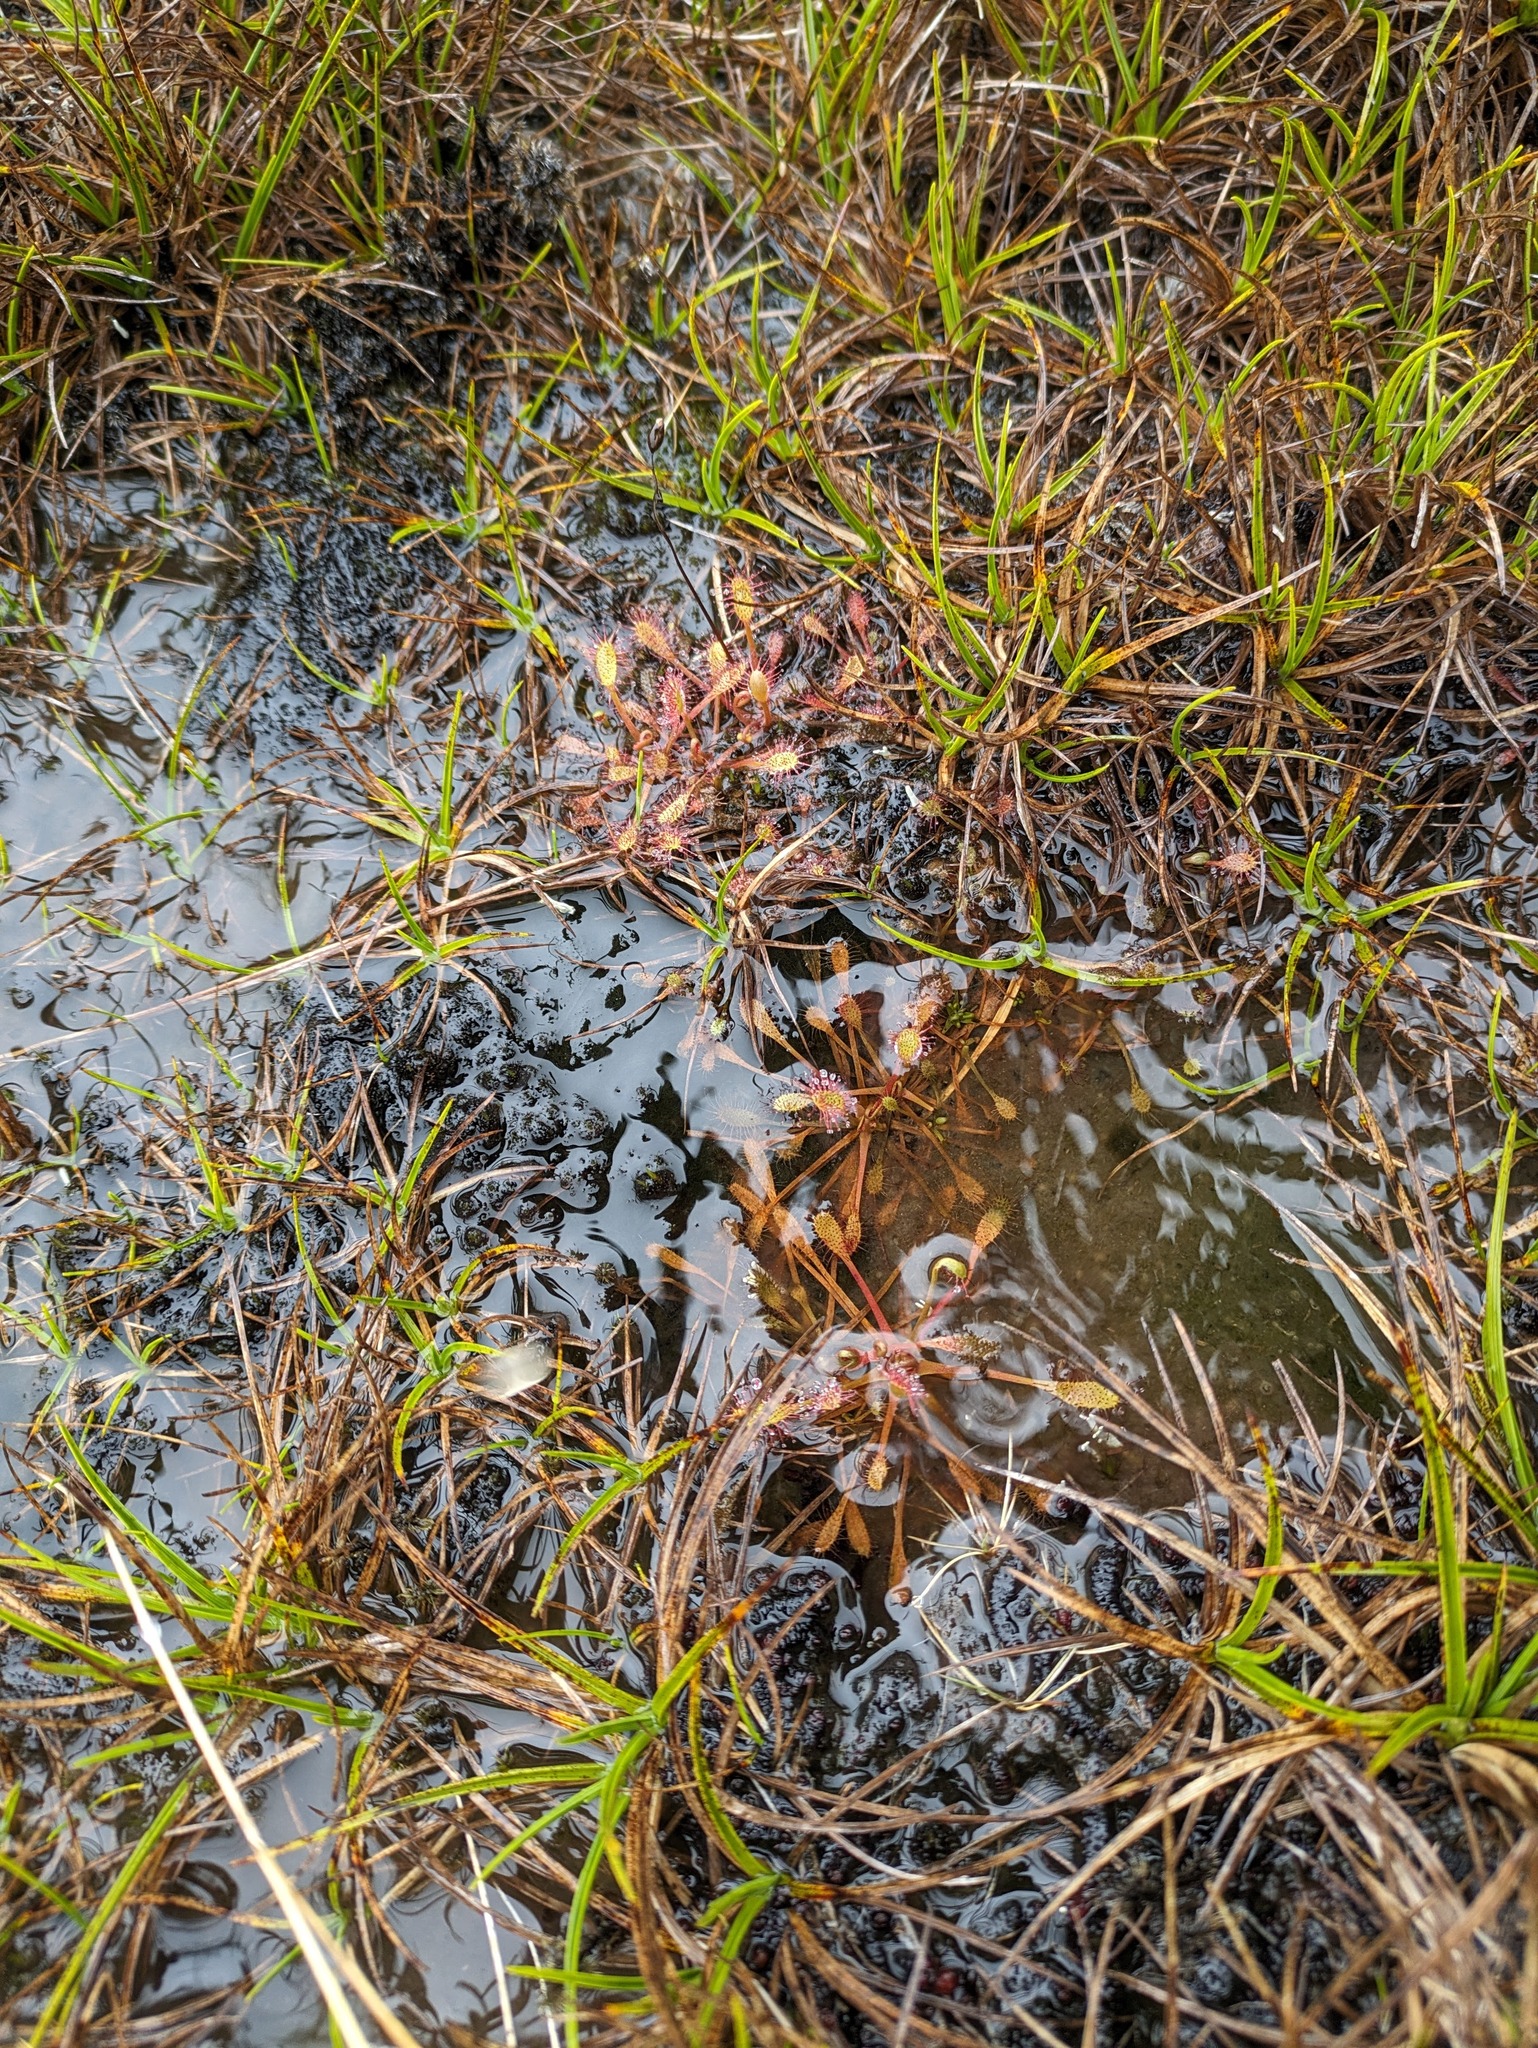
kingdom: Plantae
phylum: Tracheophyta
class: Magnoliopsida
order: Caryophyllales
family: Droseraceae
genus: Drosera
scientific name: Drosera anglica
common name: Great sundew
